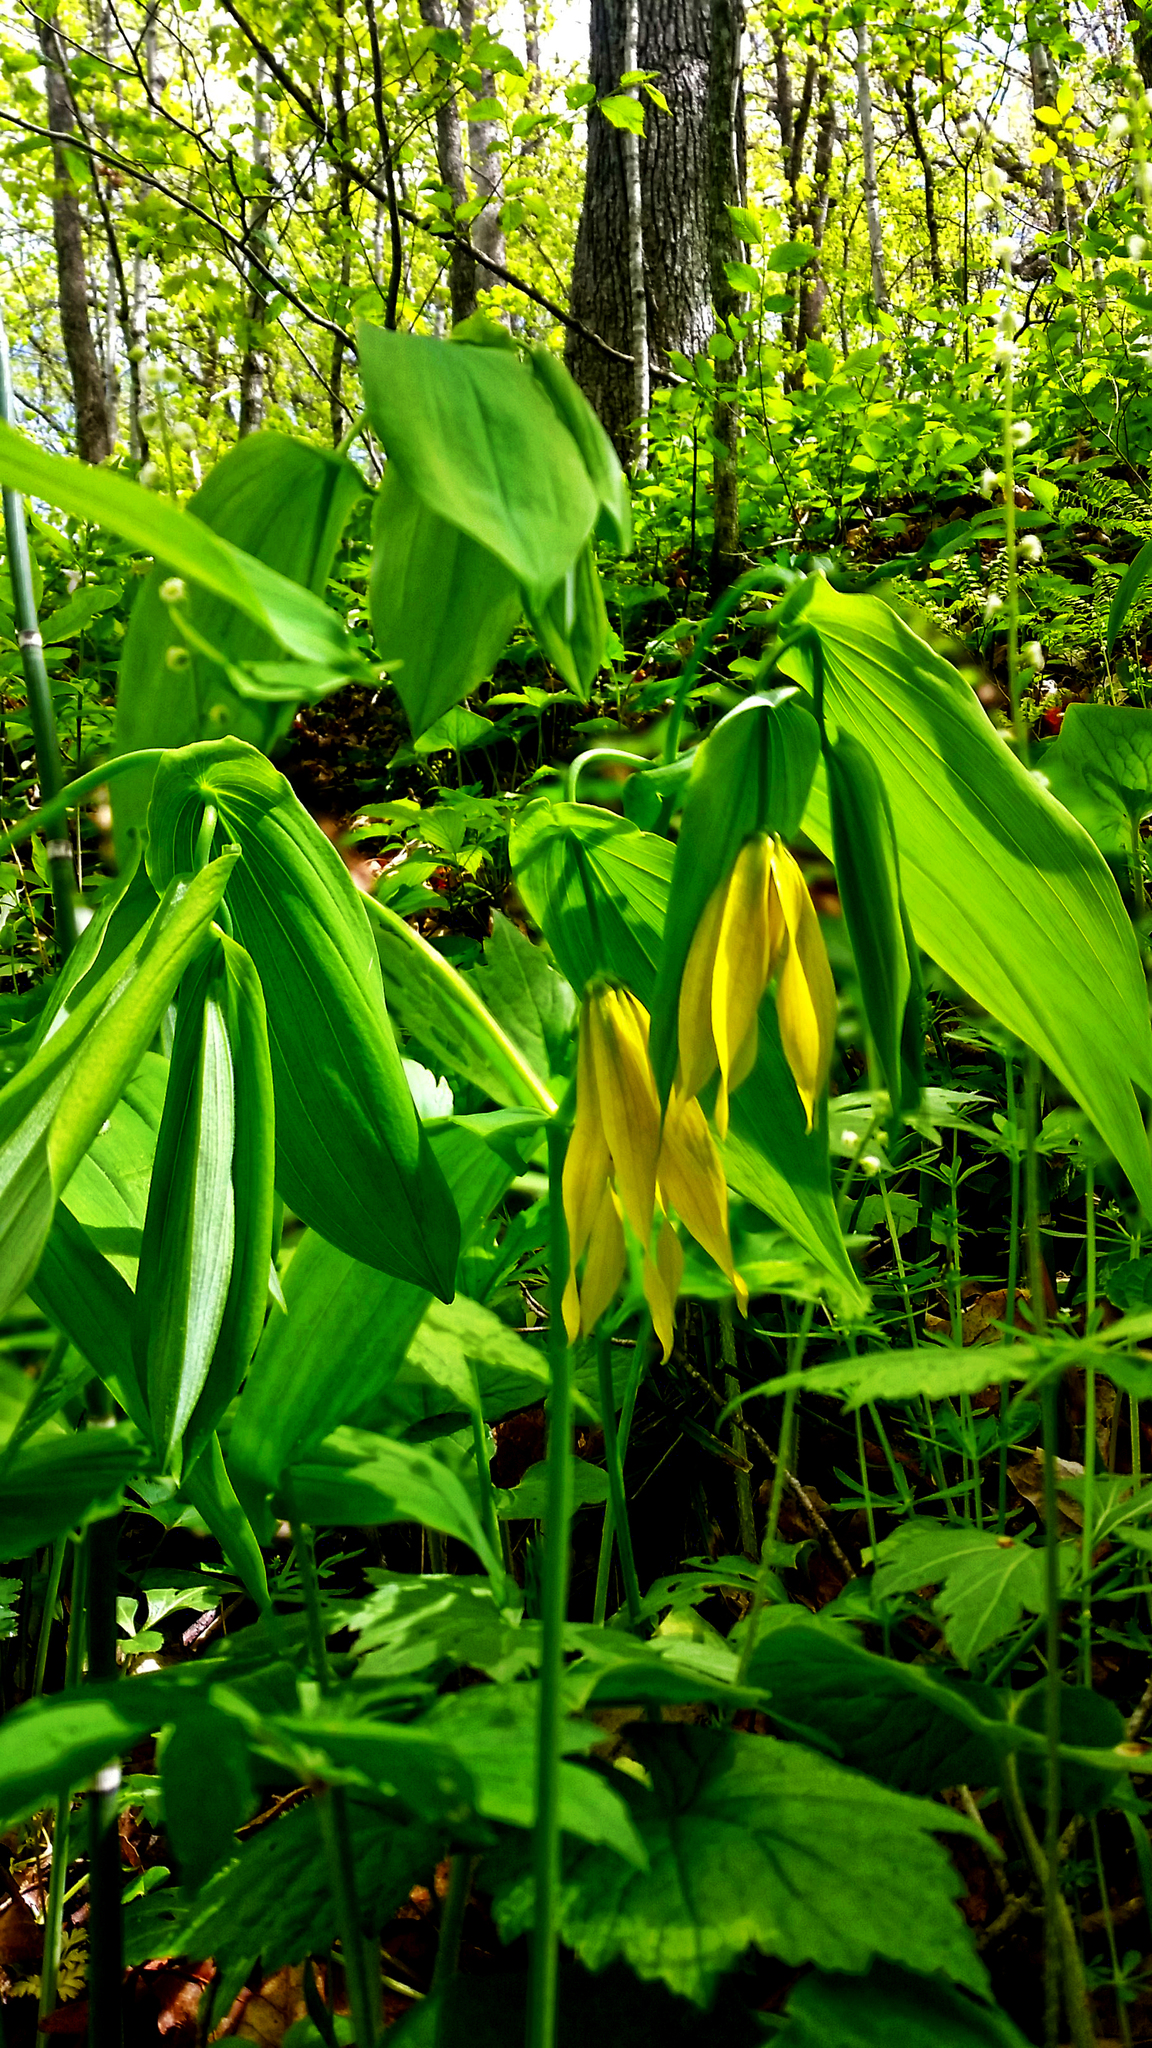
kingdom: Plantae
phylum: Tracheophyta
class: Liliopsida
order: Liliales
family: Colchicaceae
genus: Uvularia
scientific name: Uvularia grandiflora
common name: Bellwort
